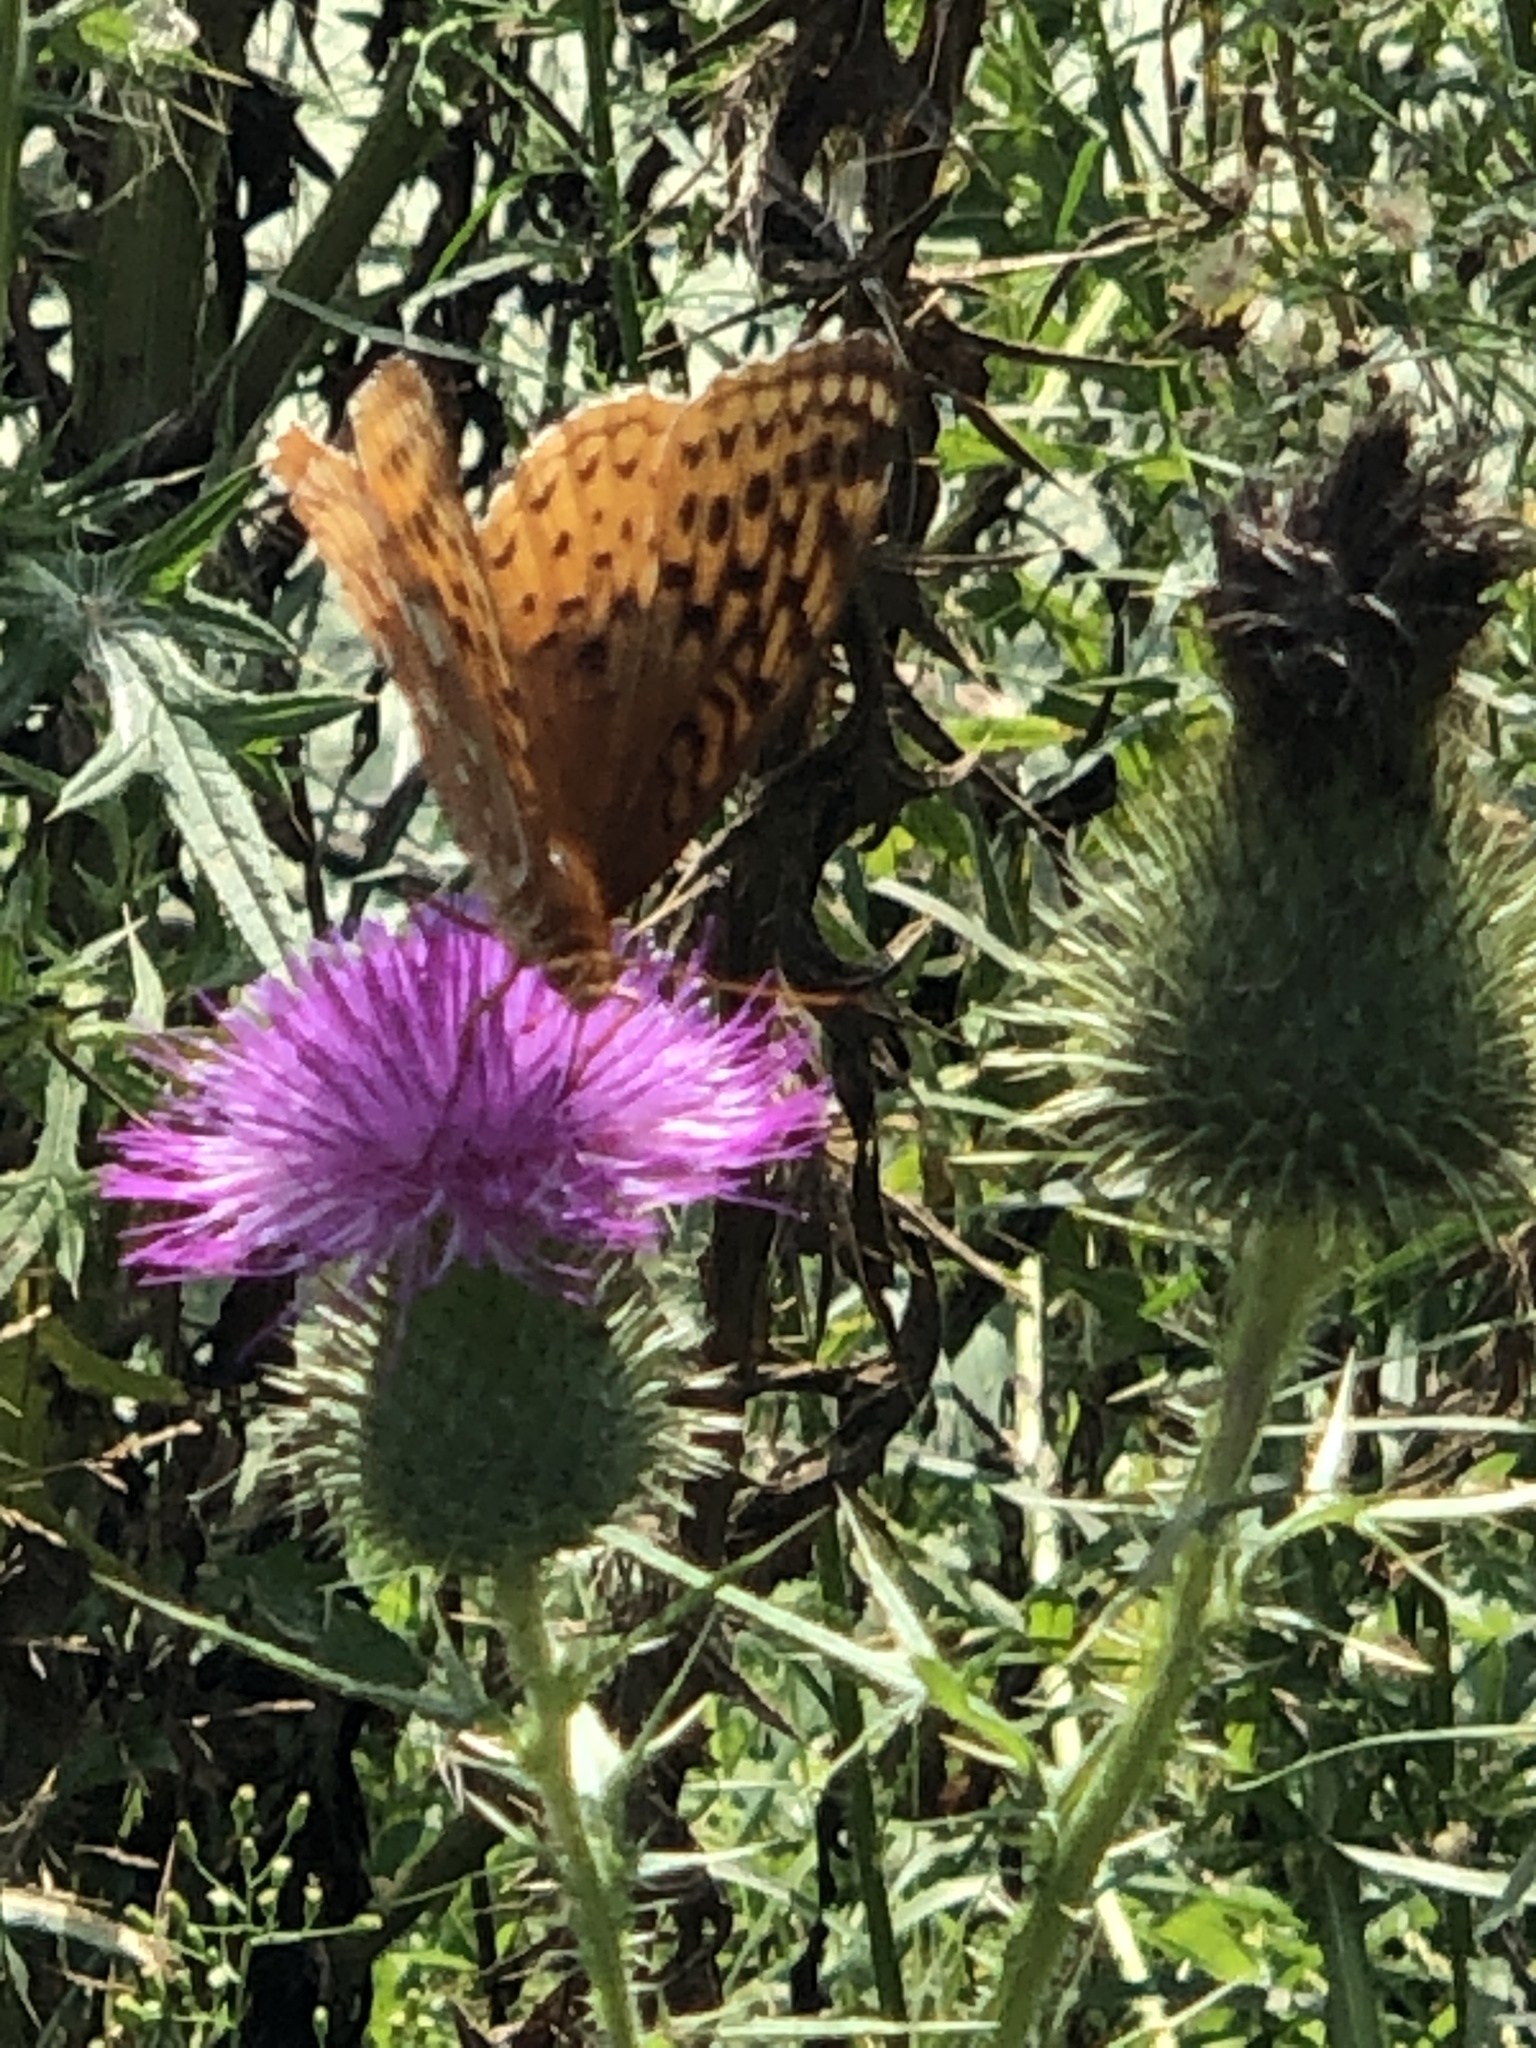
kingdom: Animalia
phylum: Arthropoda
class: Insecta
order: Lepidoptera
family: Nymphalidae
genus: Speyeria
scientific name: Speyeria cybele
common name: Great spangled fritillary
